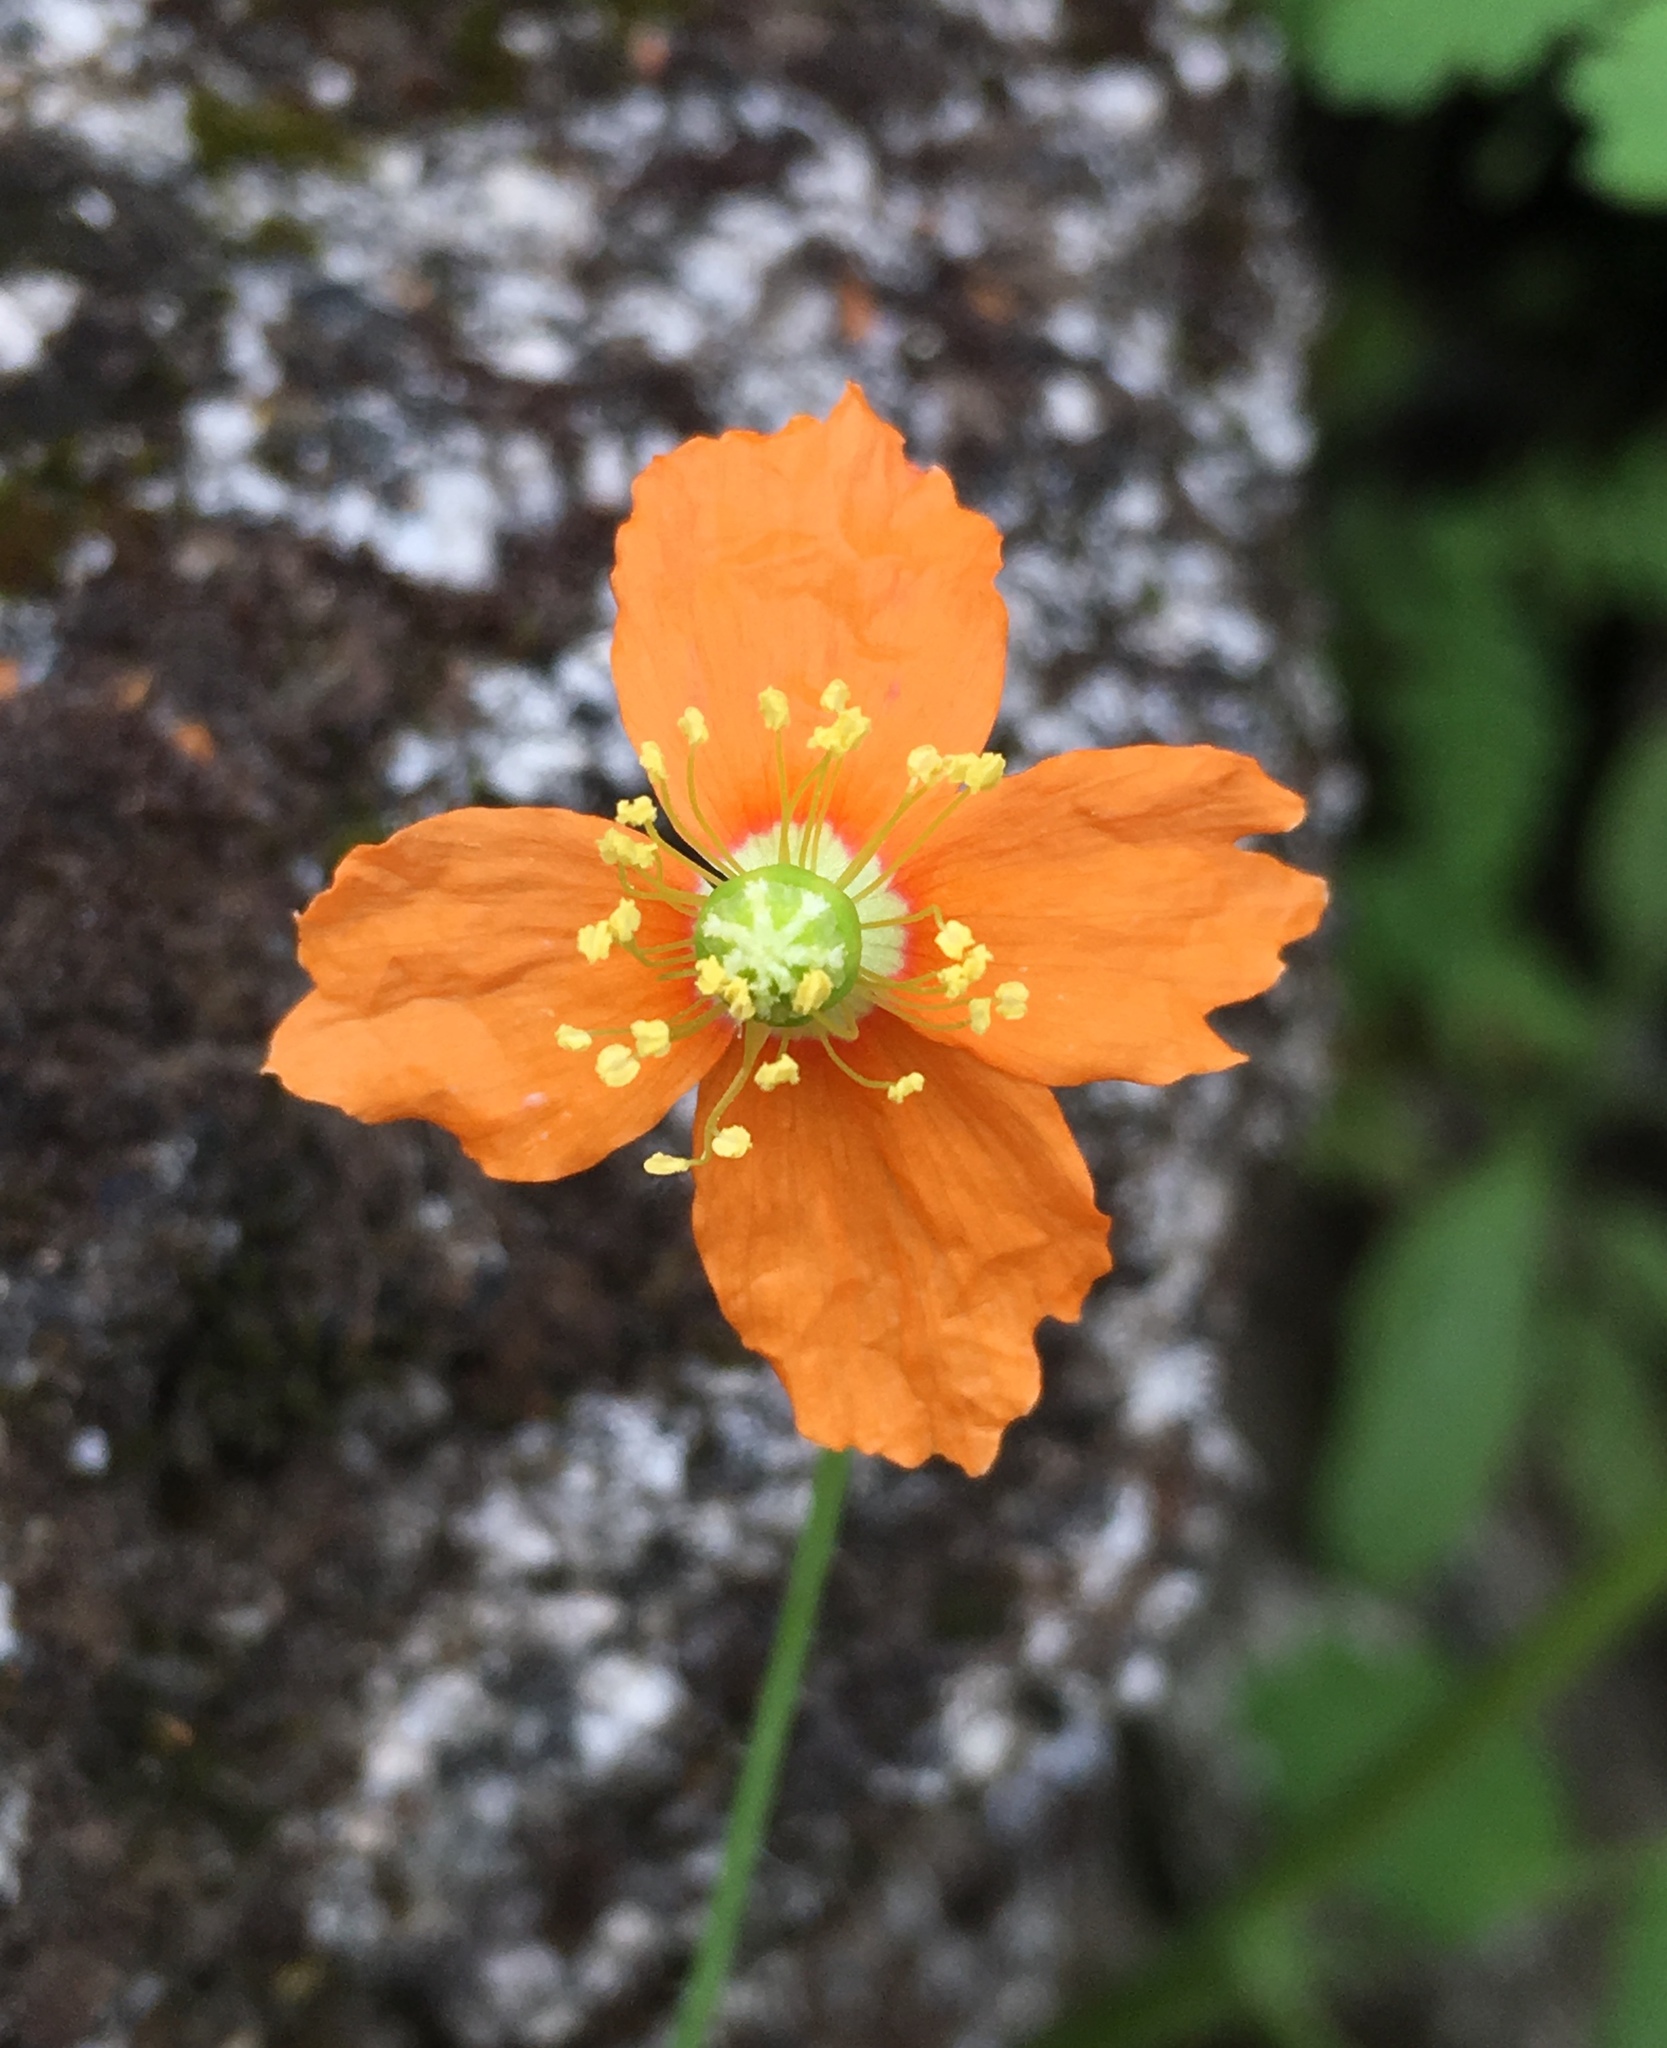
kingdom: Plantae
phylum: Tracheophyta
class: Magnoliopsida
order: Ranunculales
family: Papaveraceae
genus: Papaver
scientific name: Papaver californicum
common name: Fire poppy
